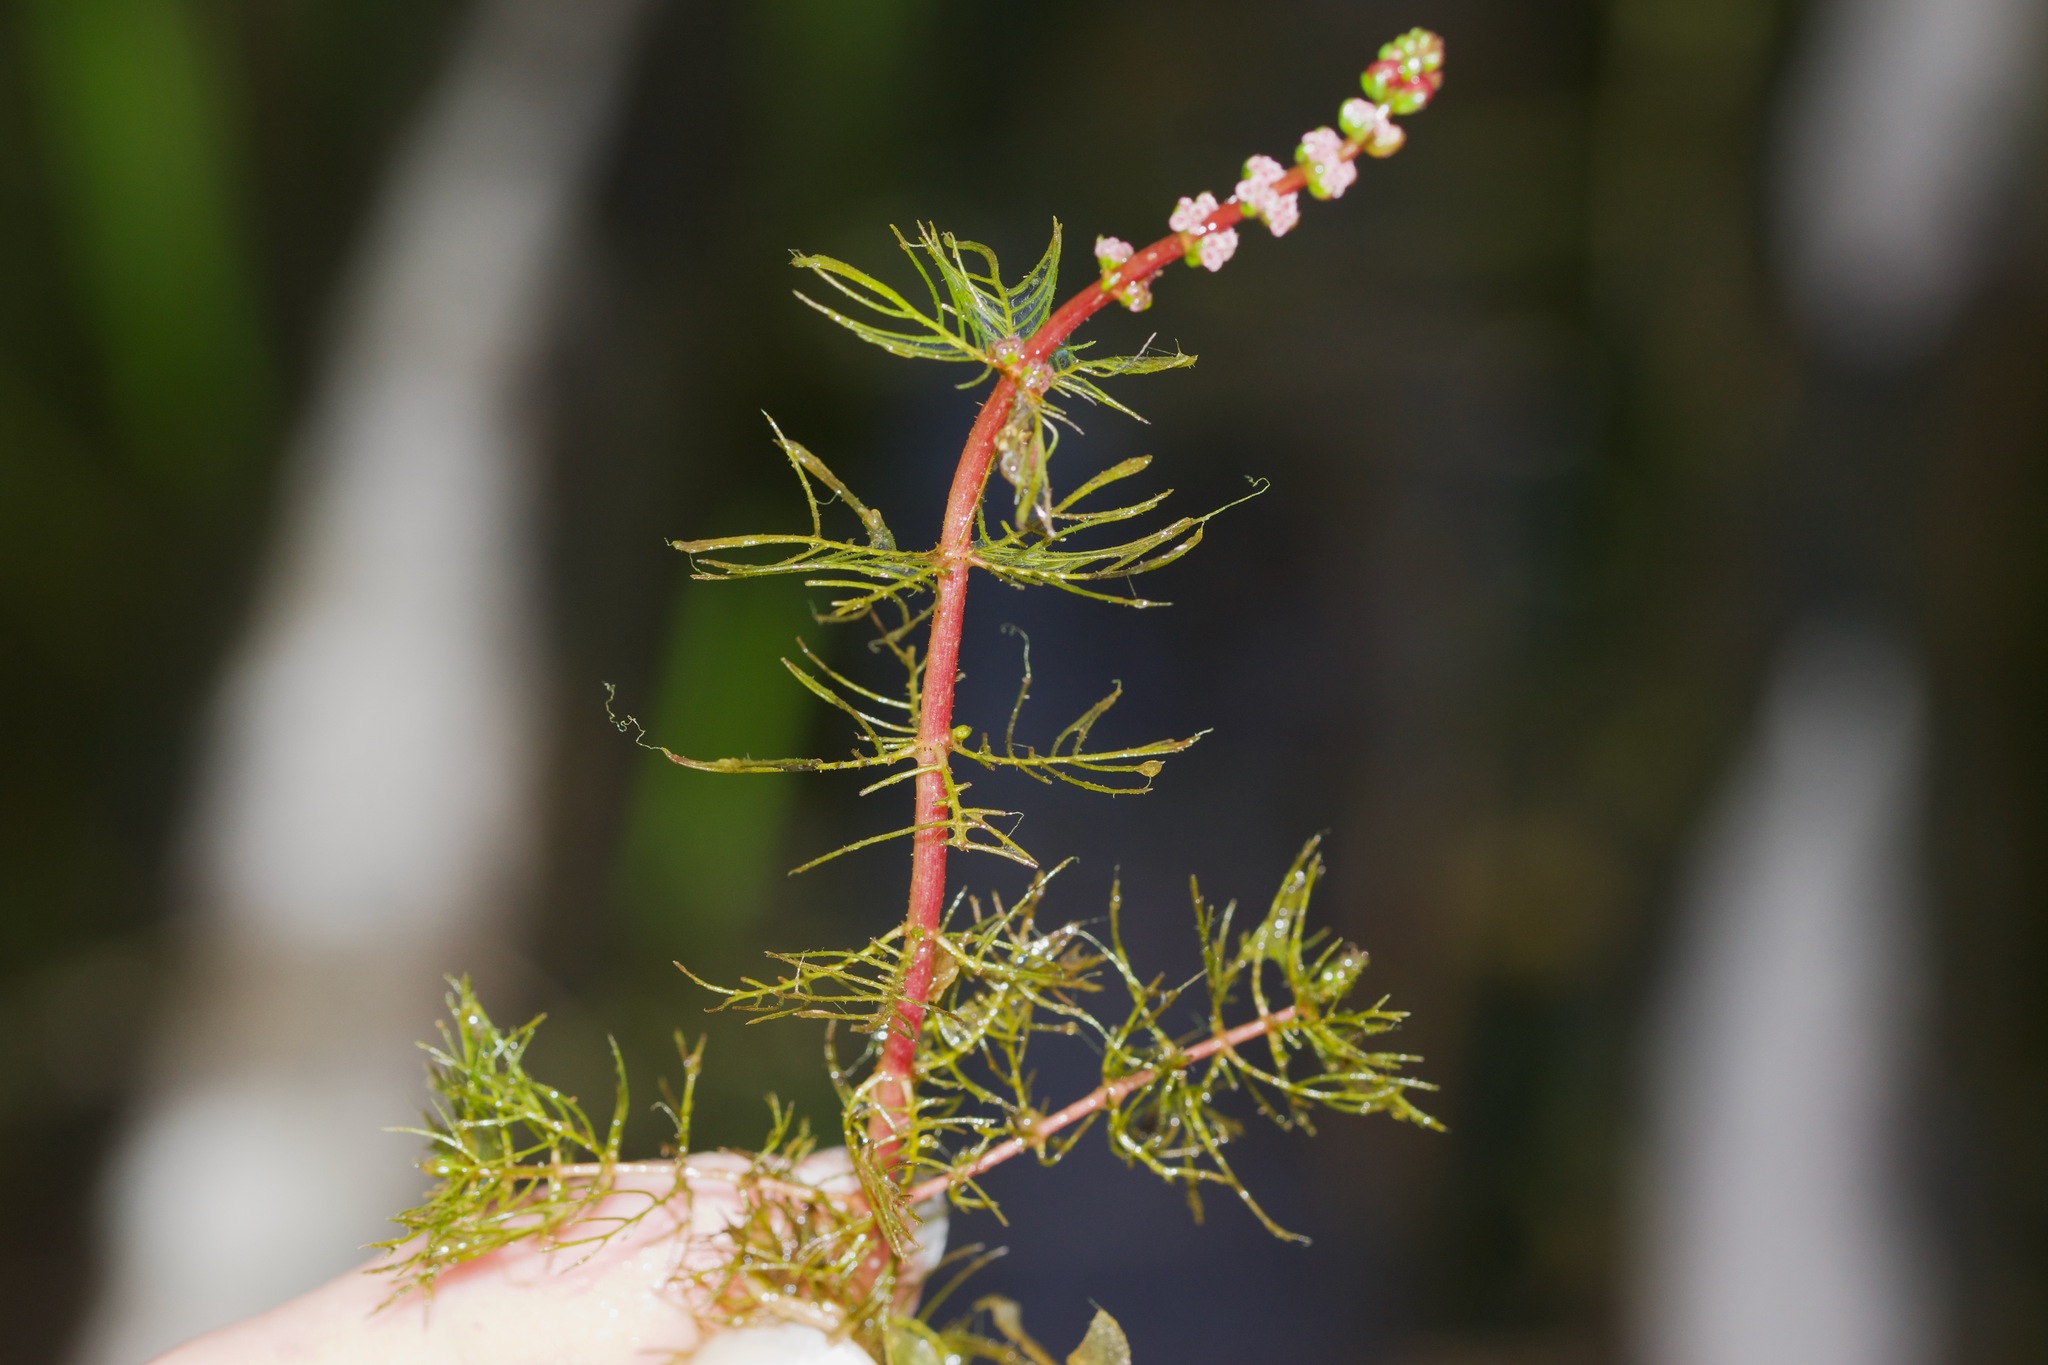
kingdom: Plantae
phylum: Tracheophyta
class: Magnoliopsida
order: Saxifragales
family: Haloragaceae
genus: Myriophyllum
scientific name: Myriophyllum sibiricum
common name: Siberian water-milfoil
